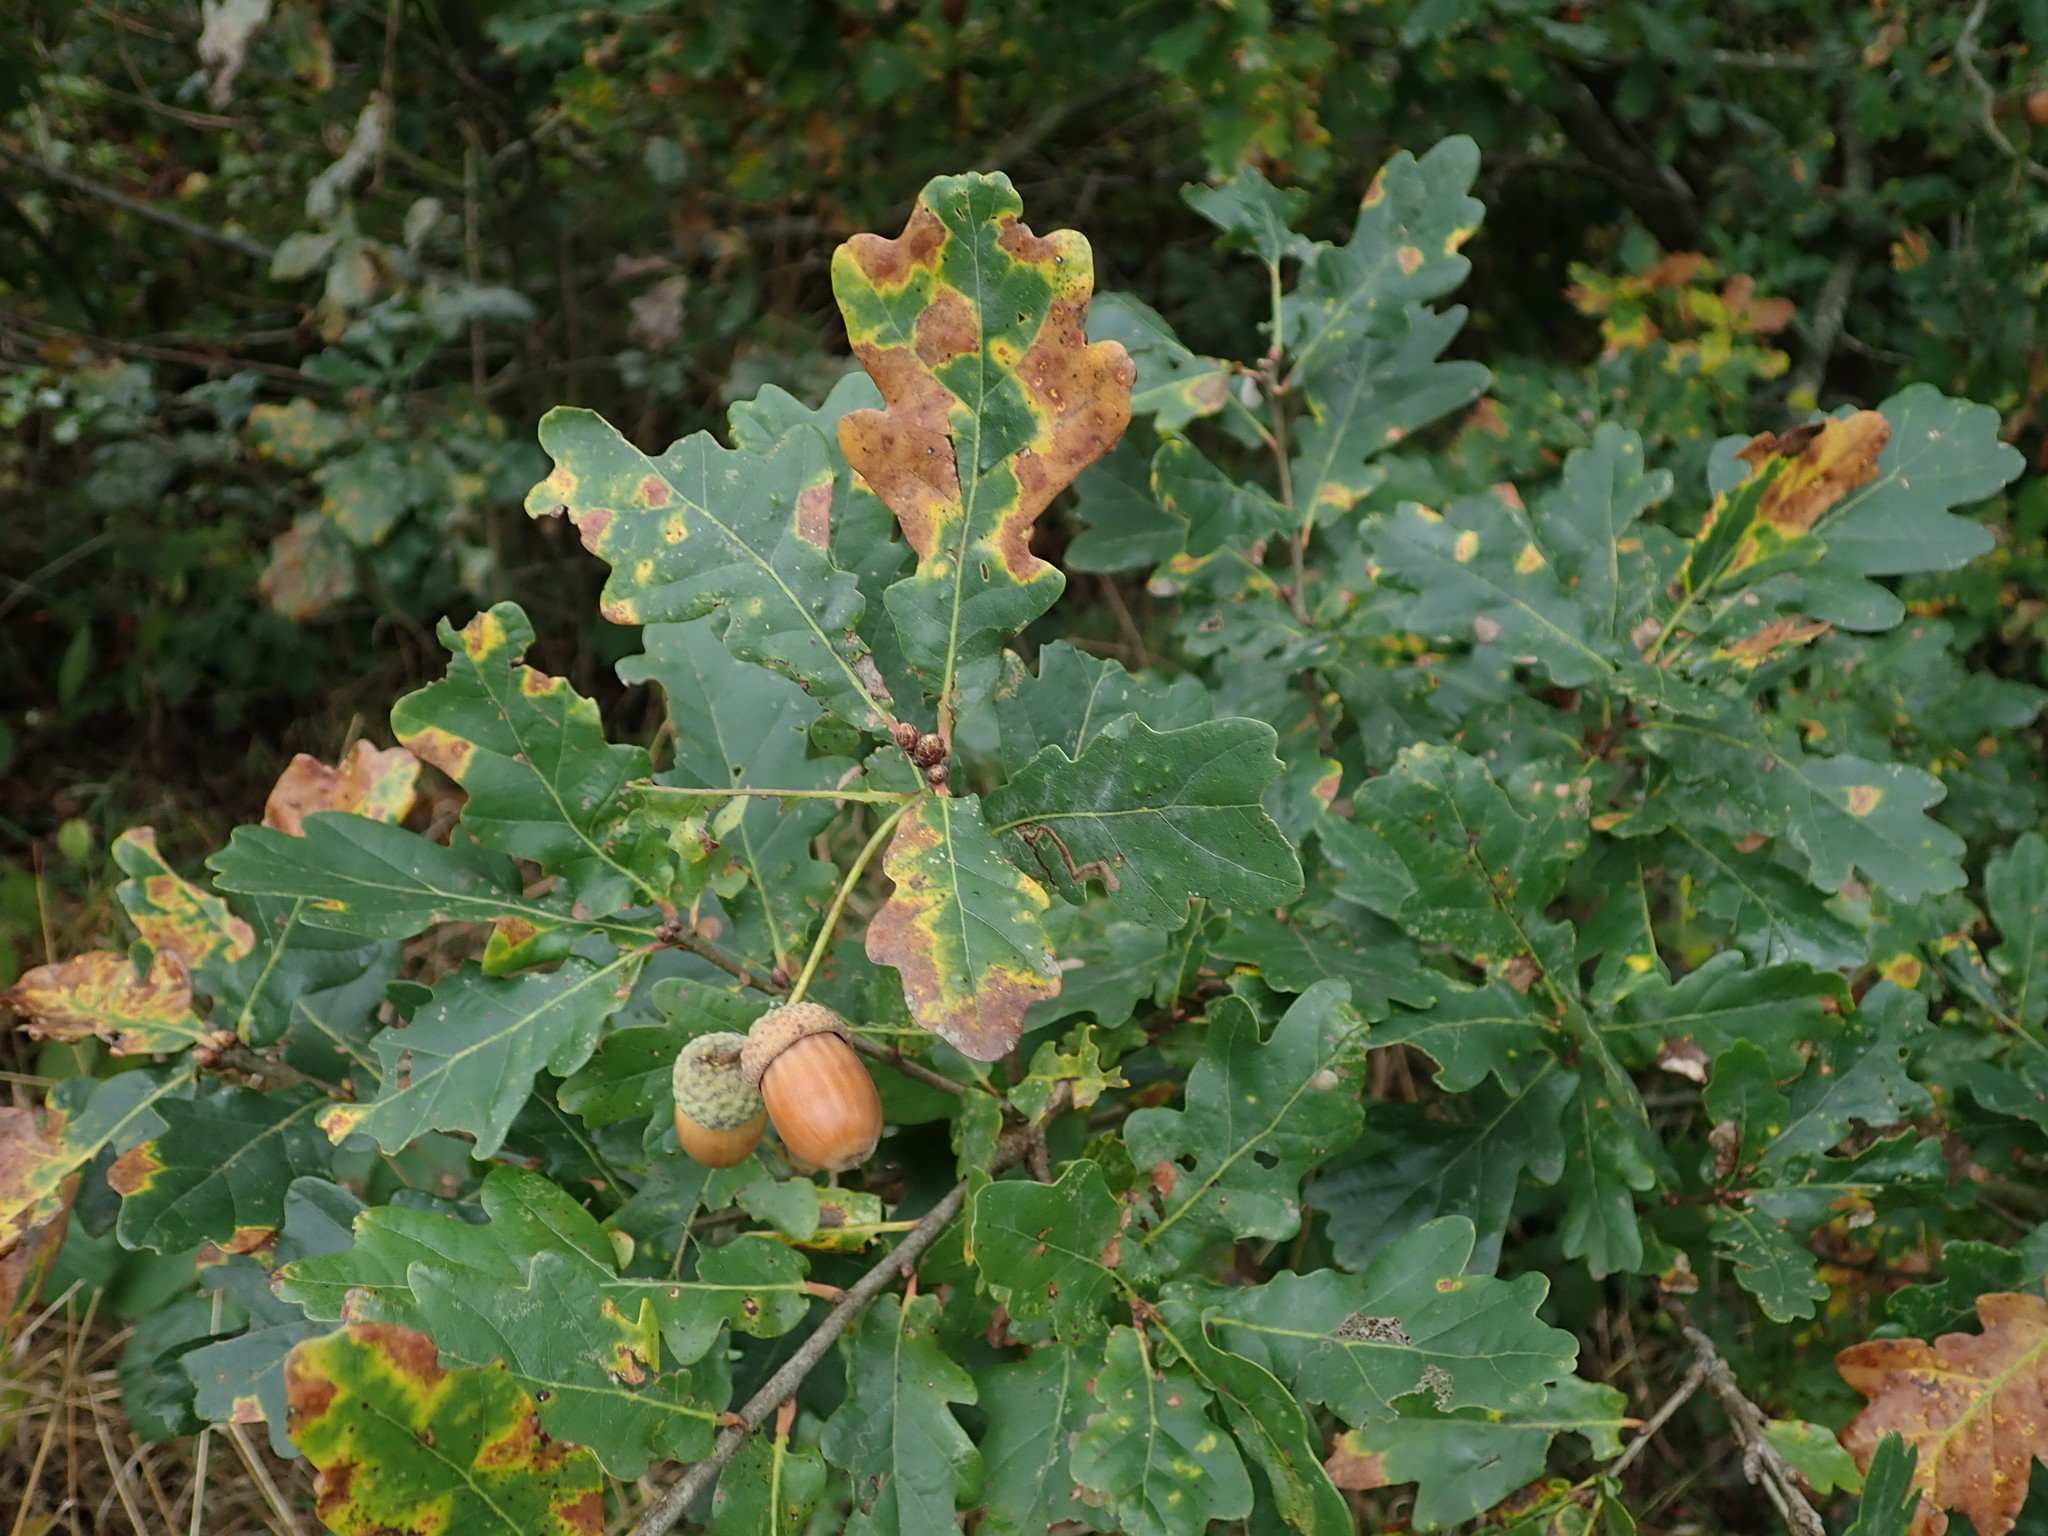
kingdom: Plantae
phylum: Tracheophyta
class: Magnoliopsida
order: Fagales
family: Fagaceae
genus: Quercus
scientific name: Quercus robur
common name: Pedunculate oak
